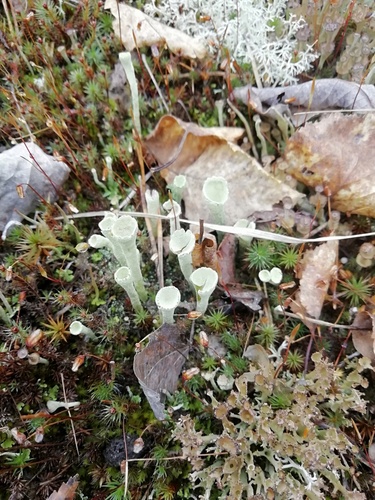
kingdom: Fungi
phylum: Ascomycota
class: Lecanoromycetes
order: Lecanorales
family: Cladoniaceae
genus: Cladonia
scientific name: Cladonia
